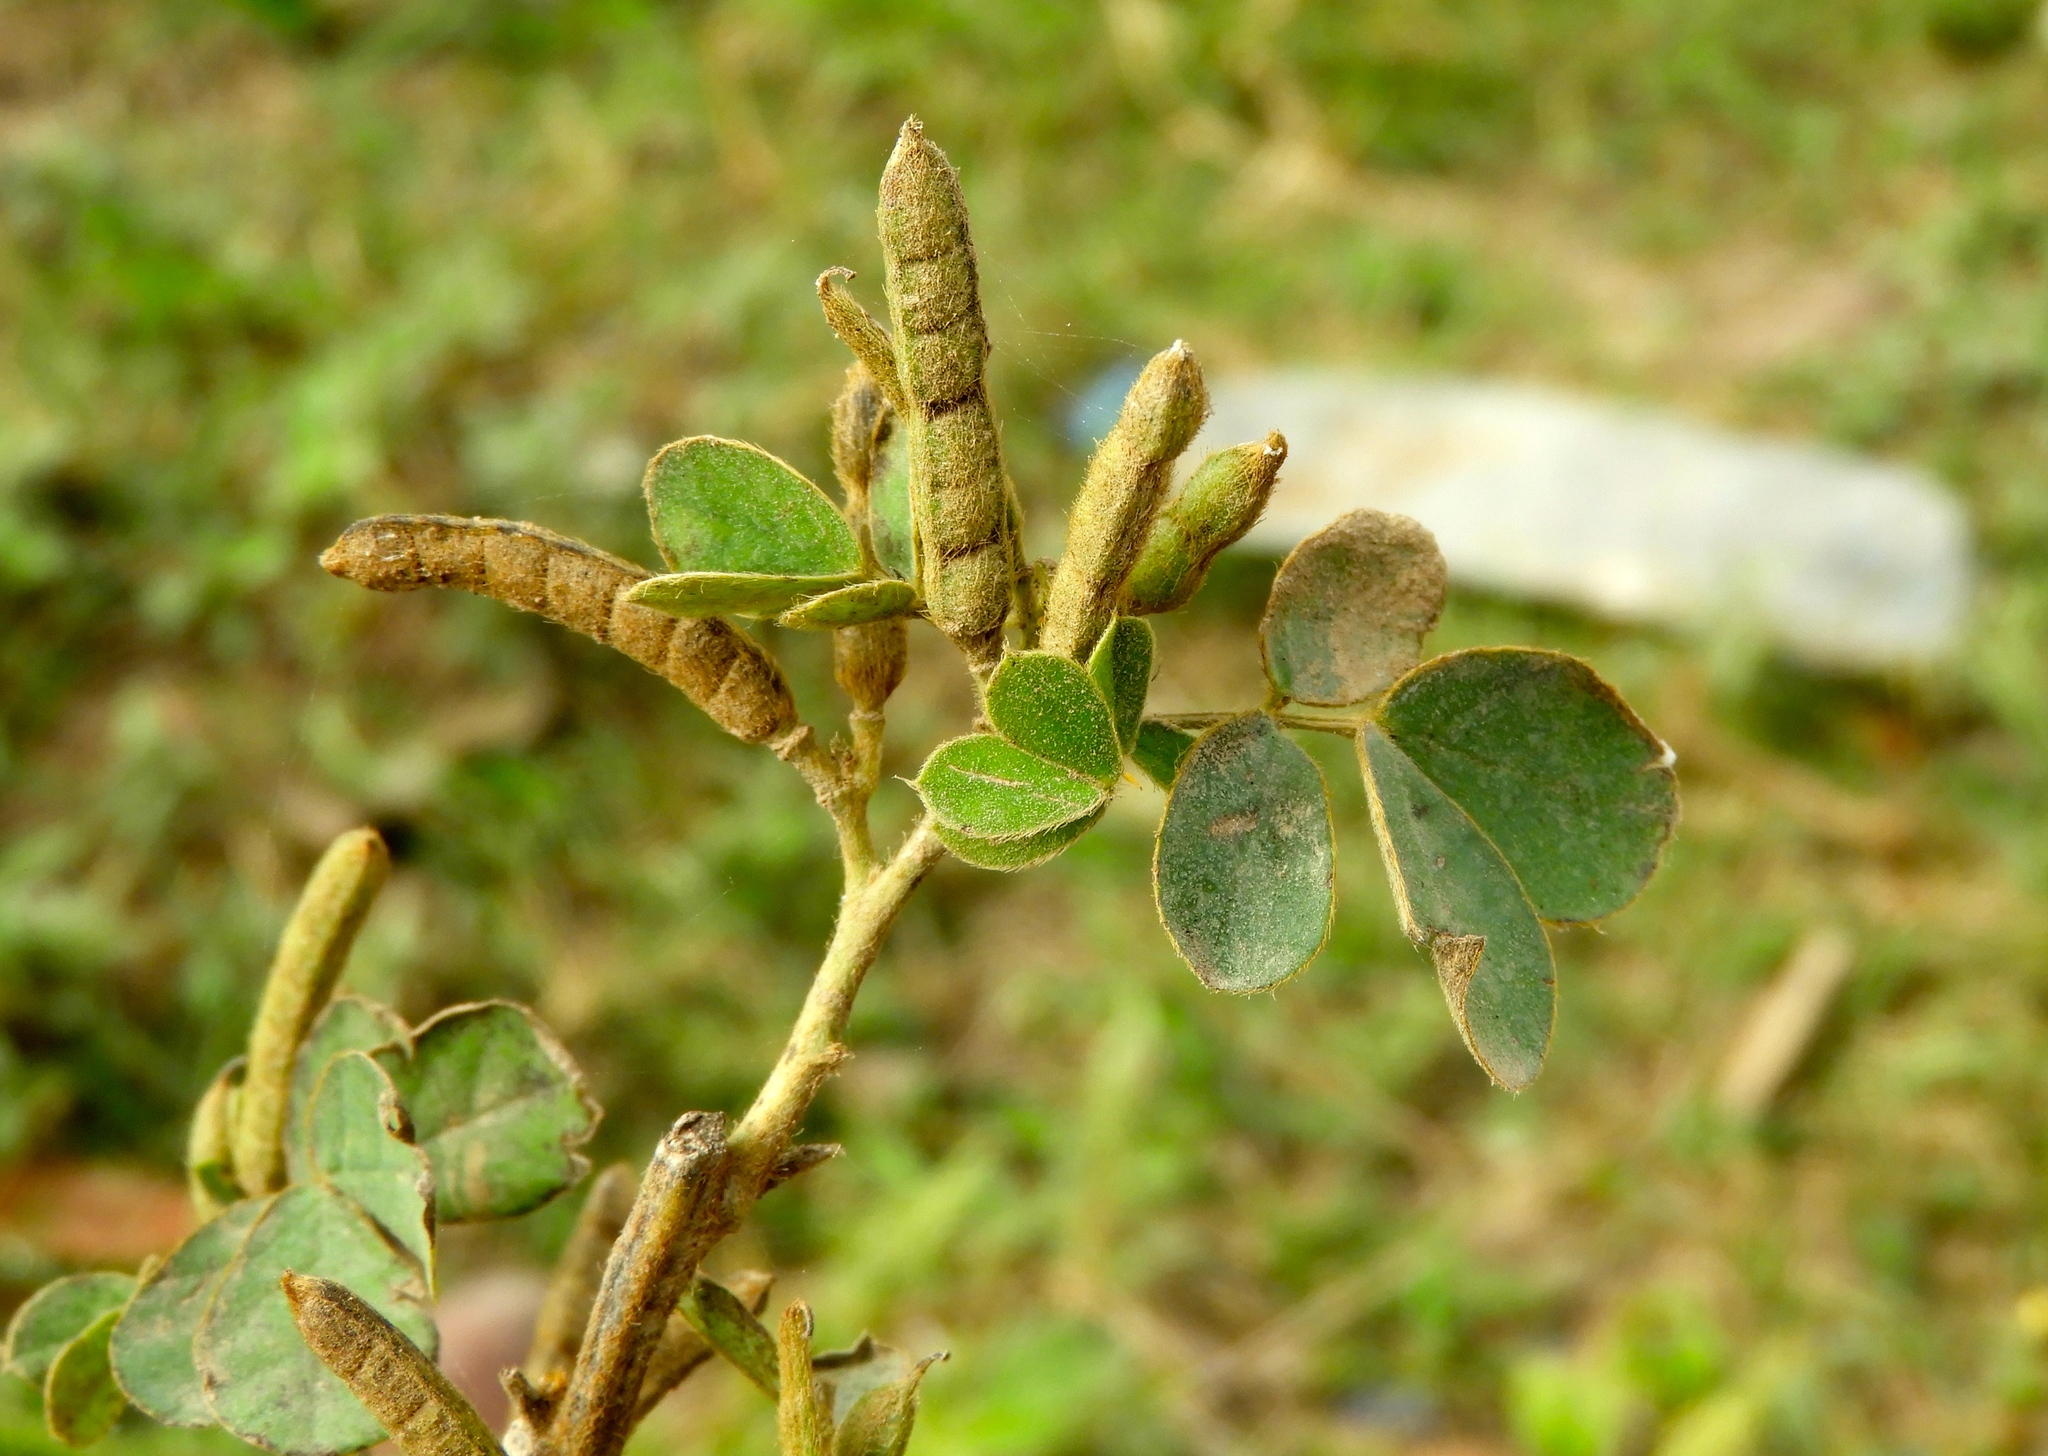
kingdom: Plantae
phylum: Tracheophyta
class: Magnoliopsida
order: Fabales
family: Fabaceae
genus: Senna
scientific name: Senna uniflora
